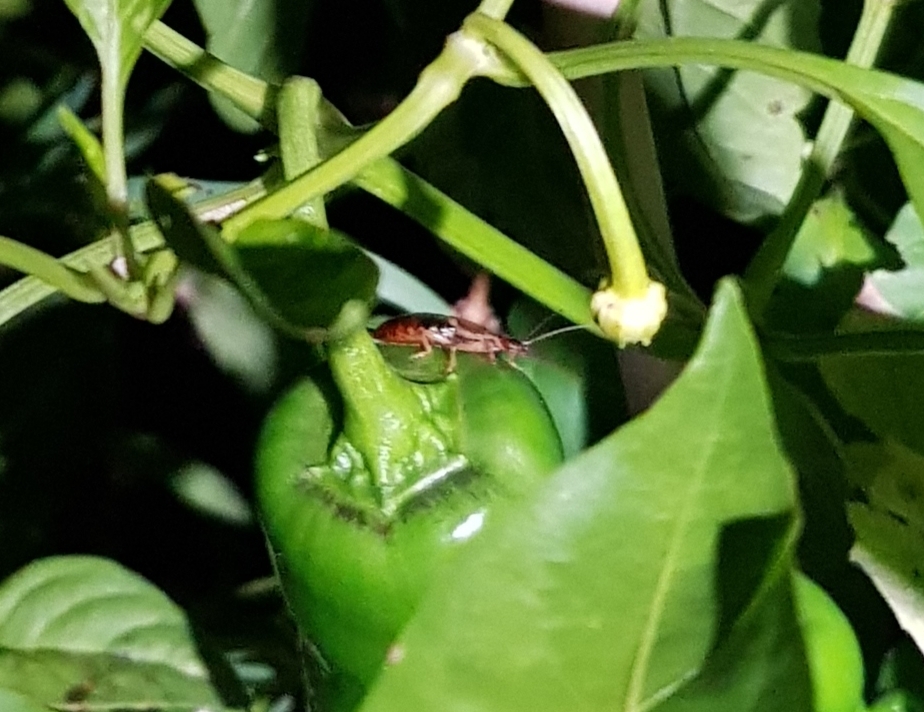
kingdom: Animalia
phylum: Arthropoda
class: Insecta
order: Dermaptera
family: Forficulidae
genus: Forficula
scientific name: Forficula
